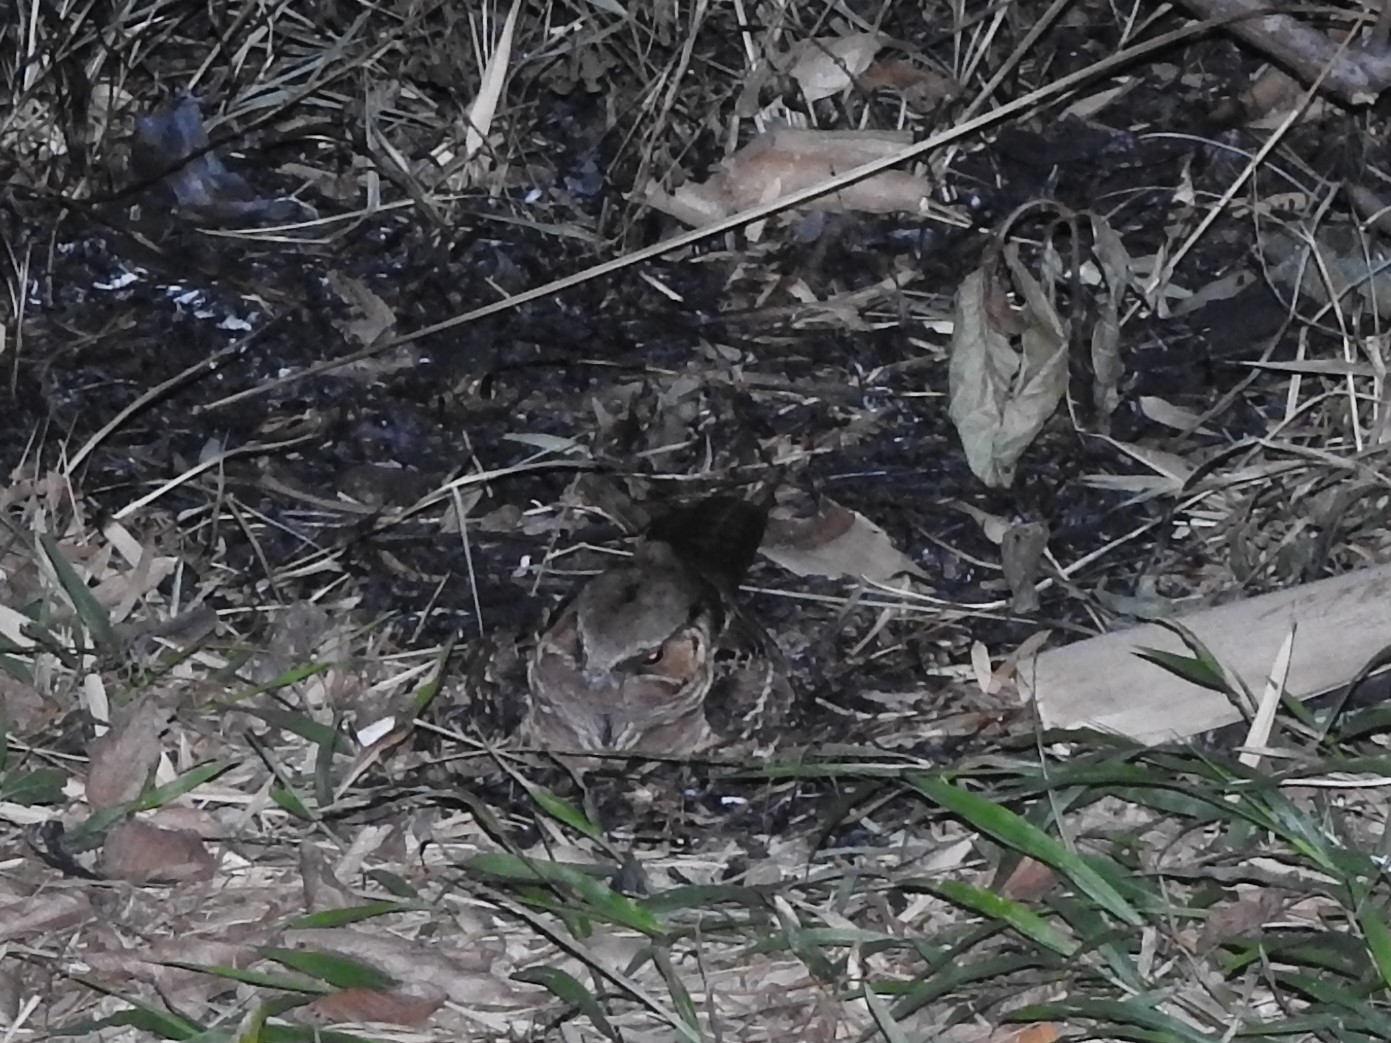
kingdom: Animalia
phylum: Chordata
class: Aves
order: Caprimulgiformes
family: Caprimulgidae
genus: Nyctidromus
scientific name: Nyctidromus albicollis
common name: Pauraque
